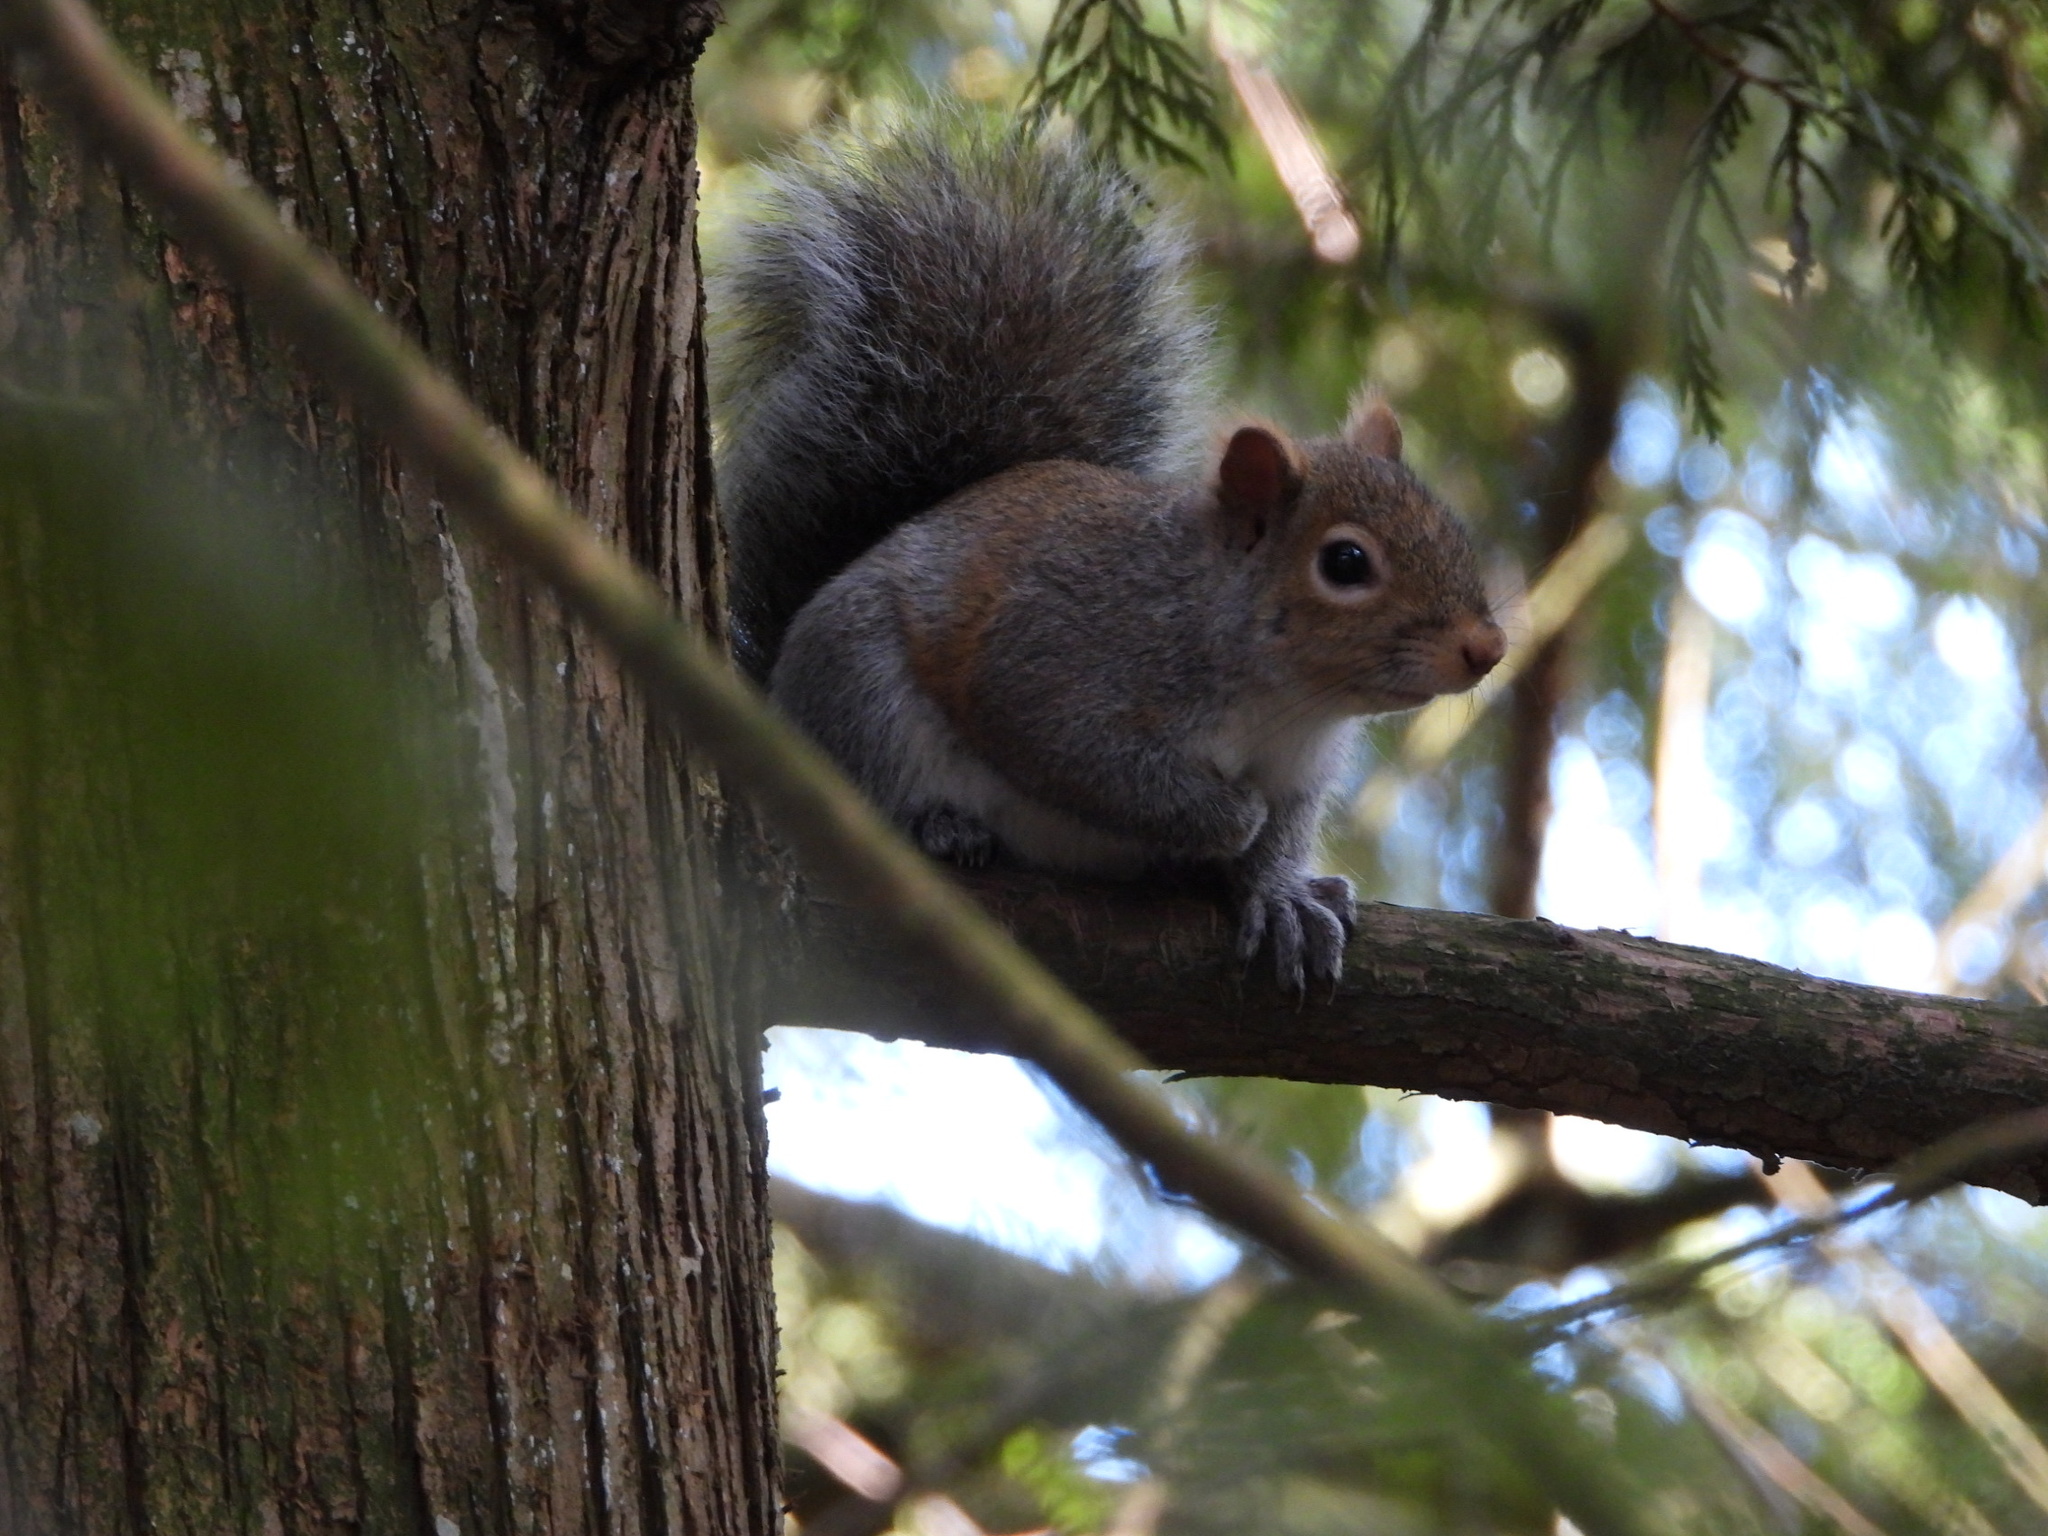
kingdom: Animalia
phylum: Chordata
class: Mammalia
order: Rodentia
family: Sciuridae
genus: Sciurus
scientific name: Sciurus carolinensis
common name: Eastern gray squirrel
